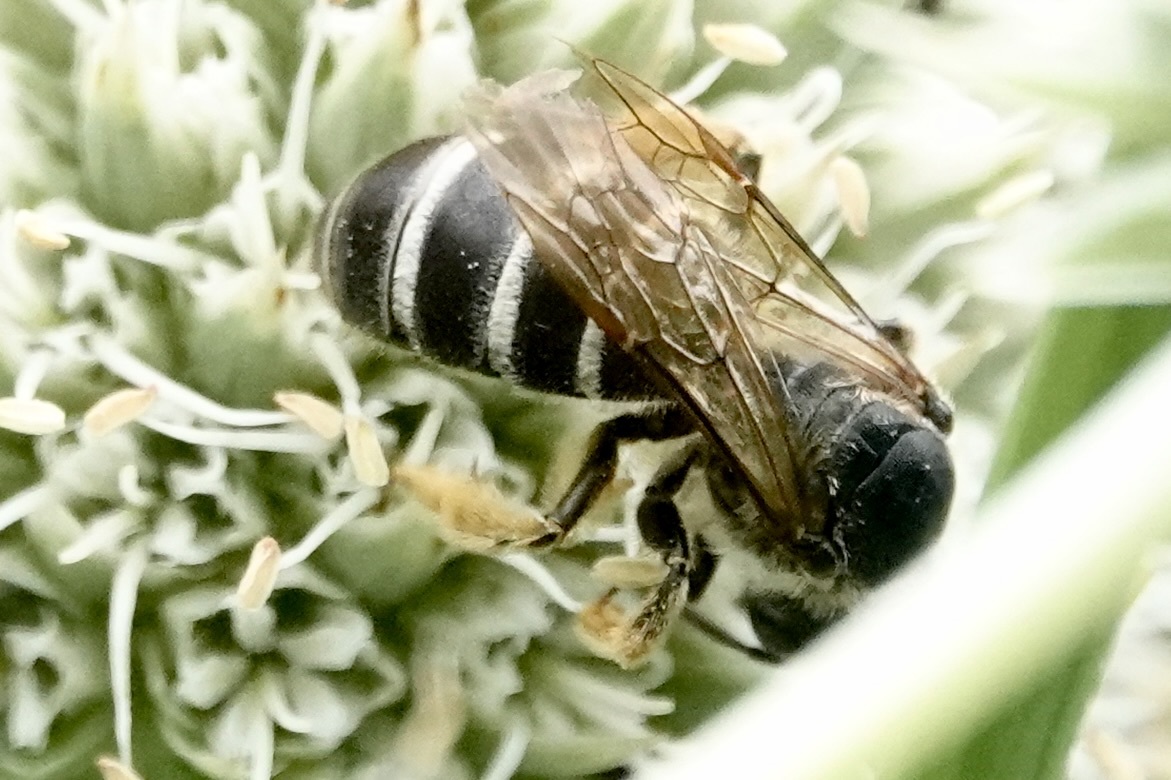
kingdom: Animalia
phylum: Arthropoda
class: Insecta
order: Hymenoptera
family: Halictidae
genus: Halictus
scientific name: Halictus rubicundus
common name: Orange-legged furrow bee
